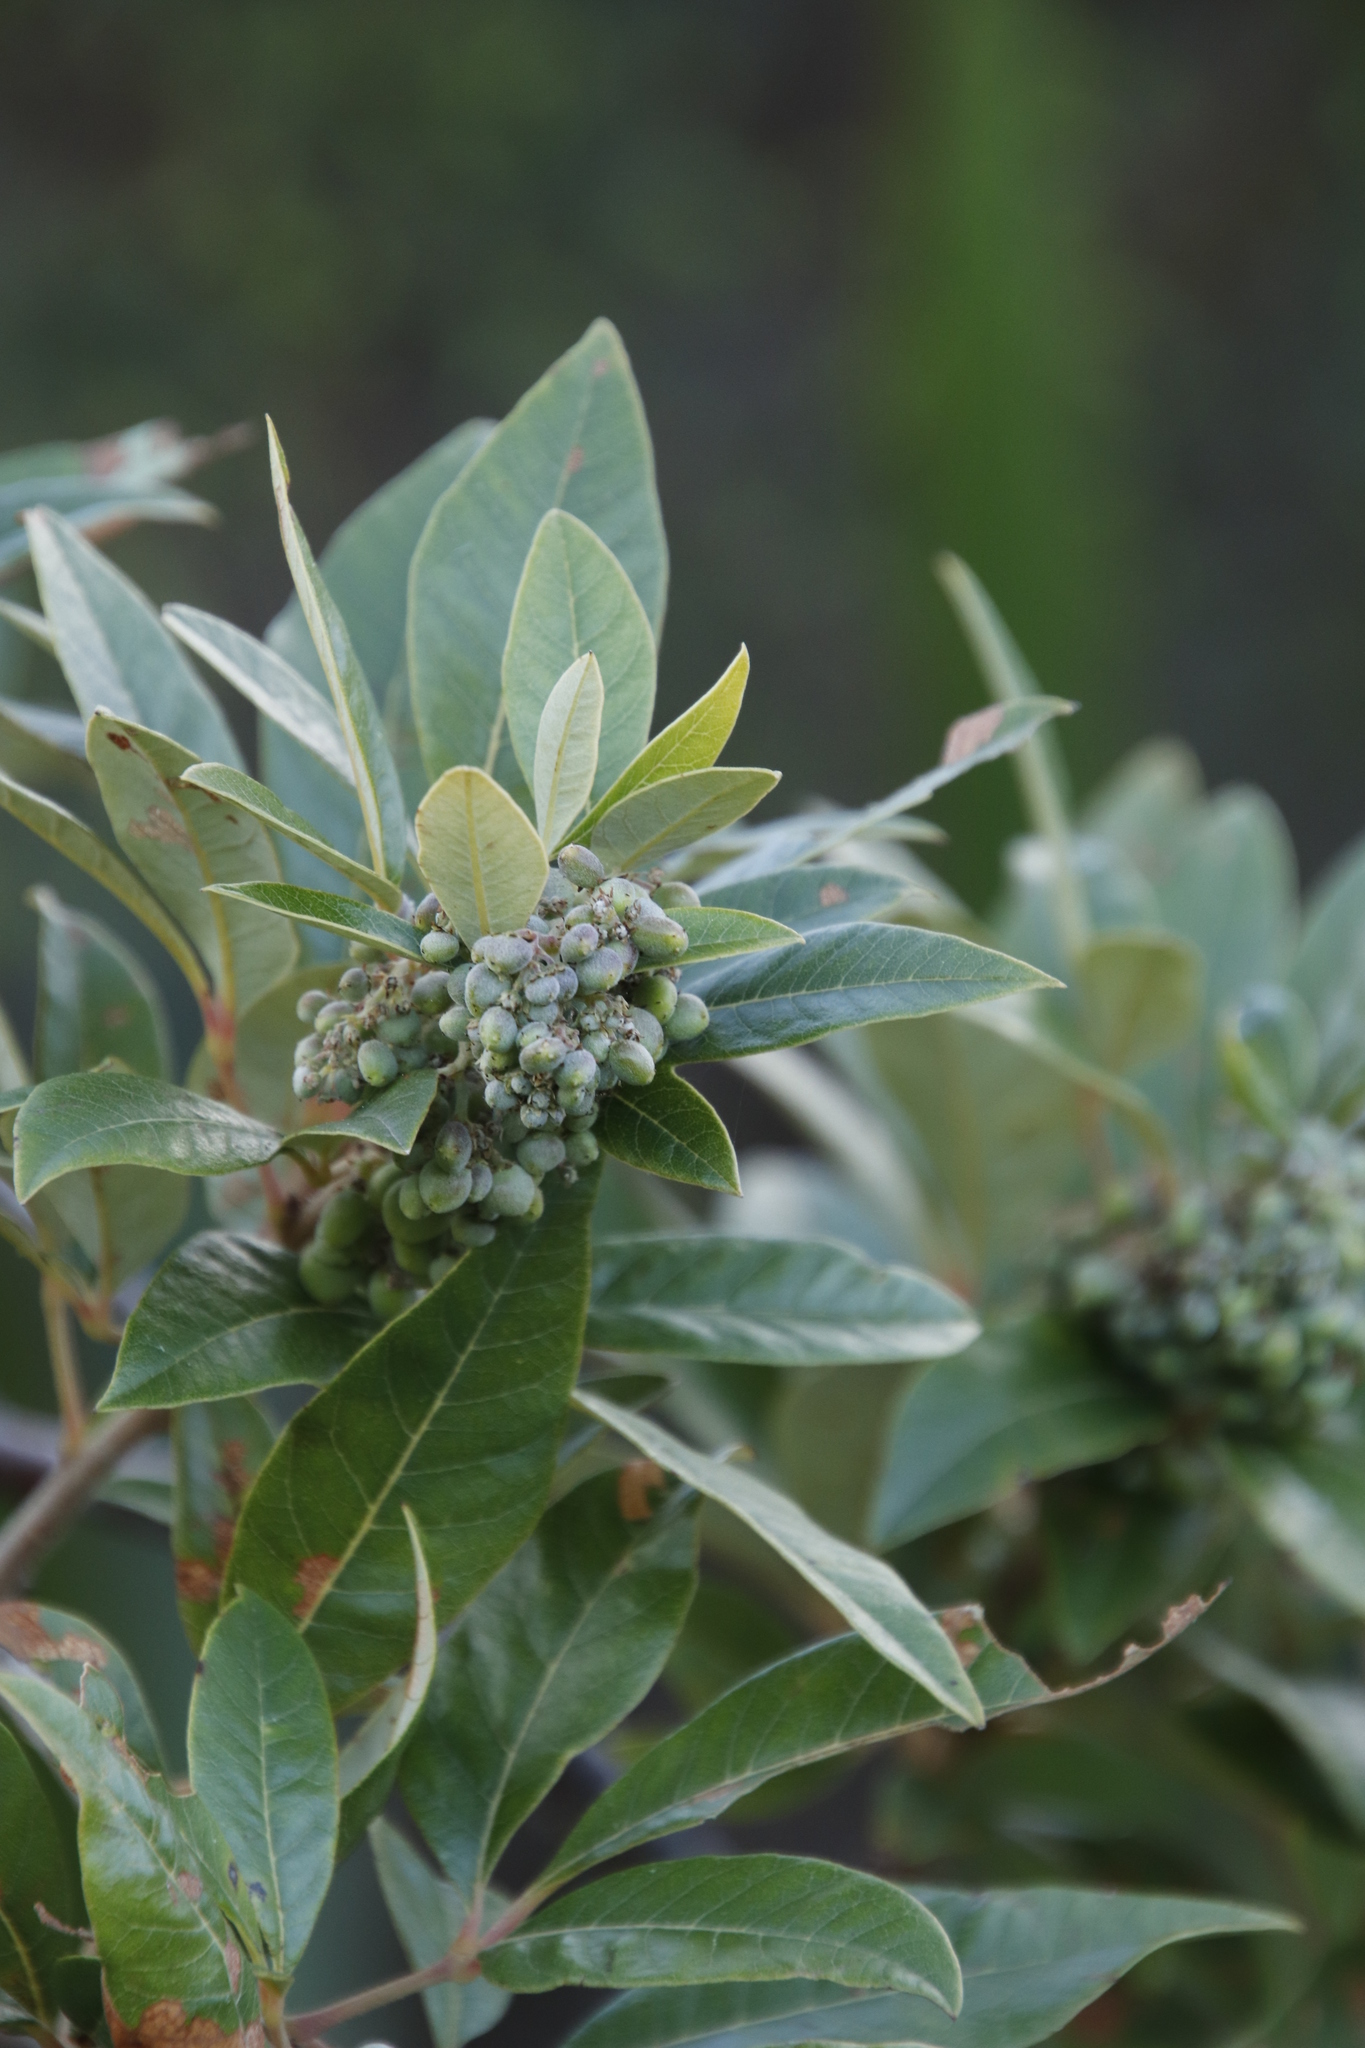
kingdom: Plantae
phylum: Tracheophyta
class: Magnoliopsida
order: Sapindales
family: Anacardiaceae
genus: Searsia
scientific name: Searsia tomentosa
